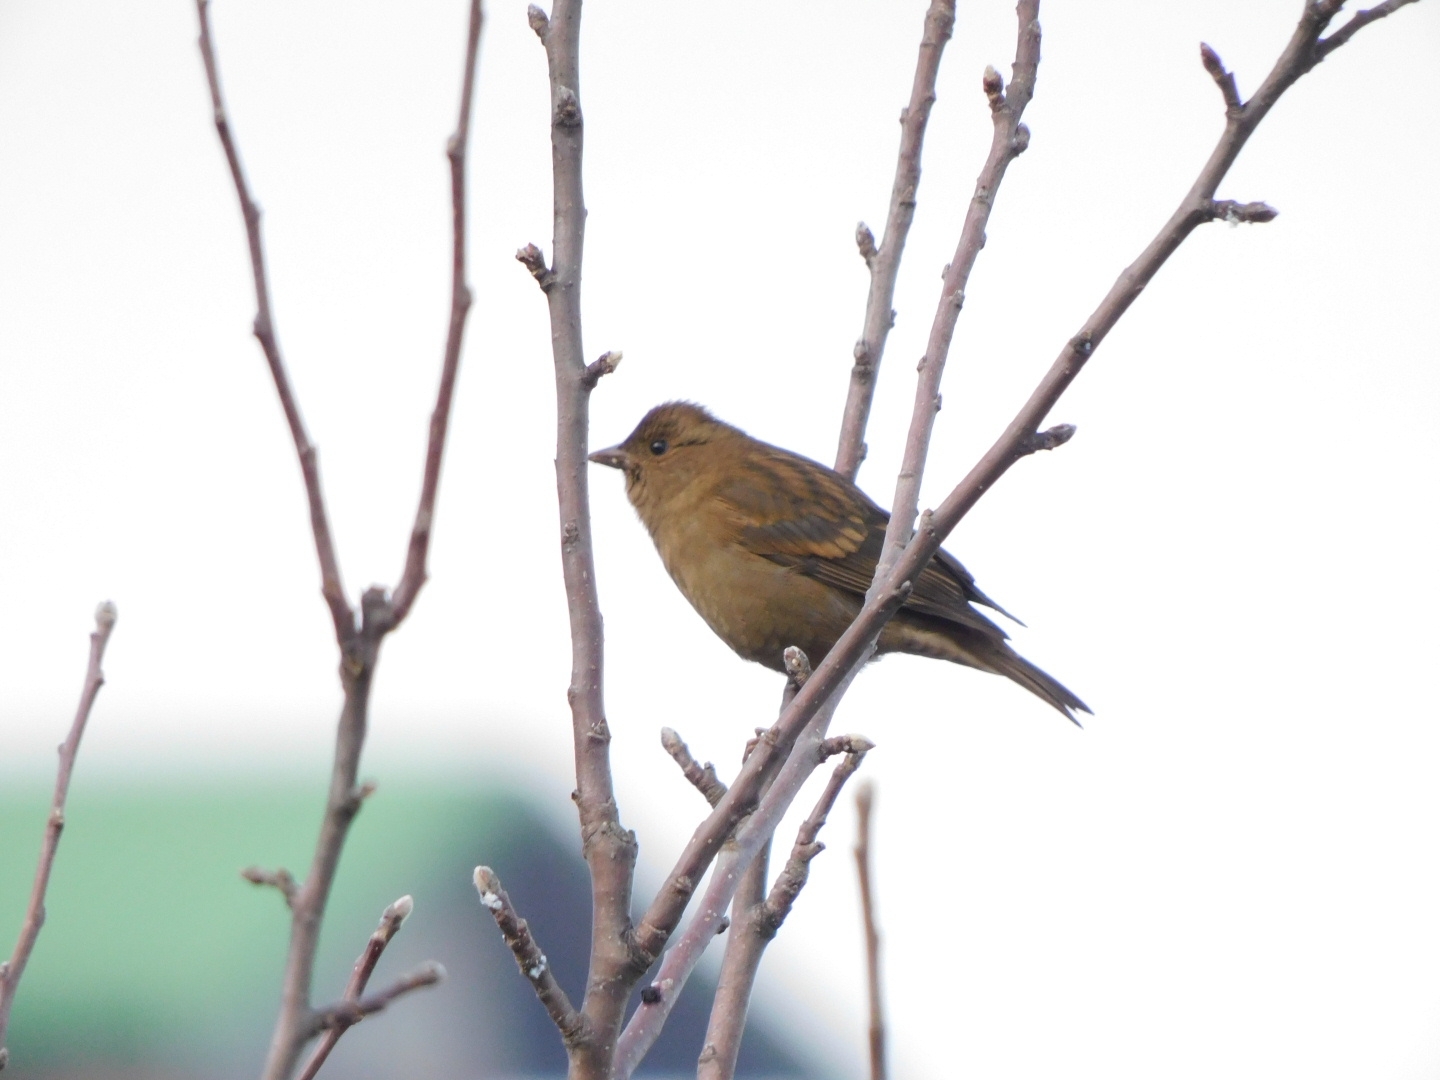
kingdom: Animalia
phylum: Chordata
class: Aves
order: Passeriformes
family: Fringillidae
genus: Procarduelis
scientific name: Procarduelis nipalensis
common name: Dark-breasted rosefinch
